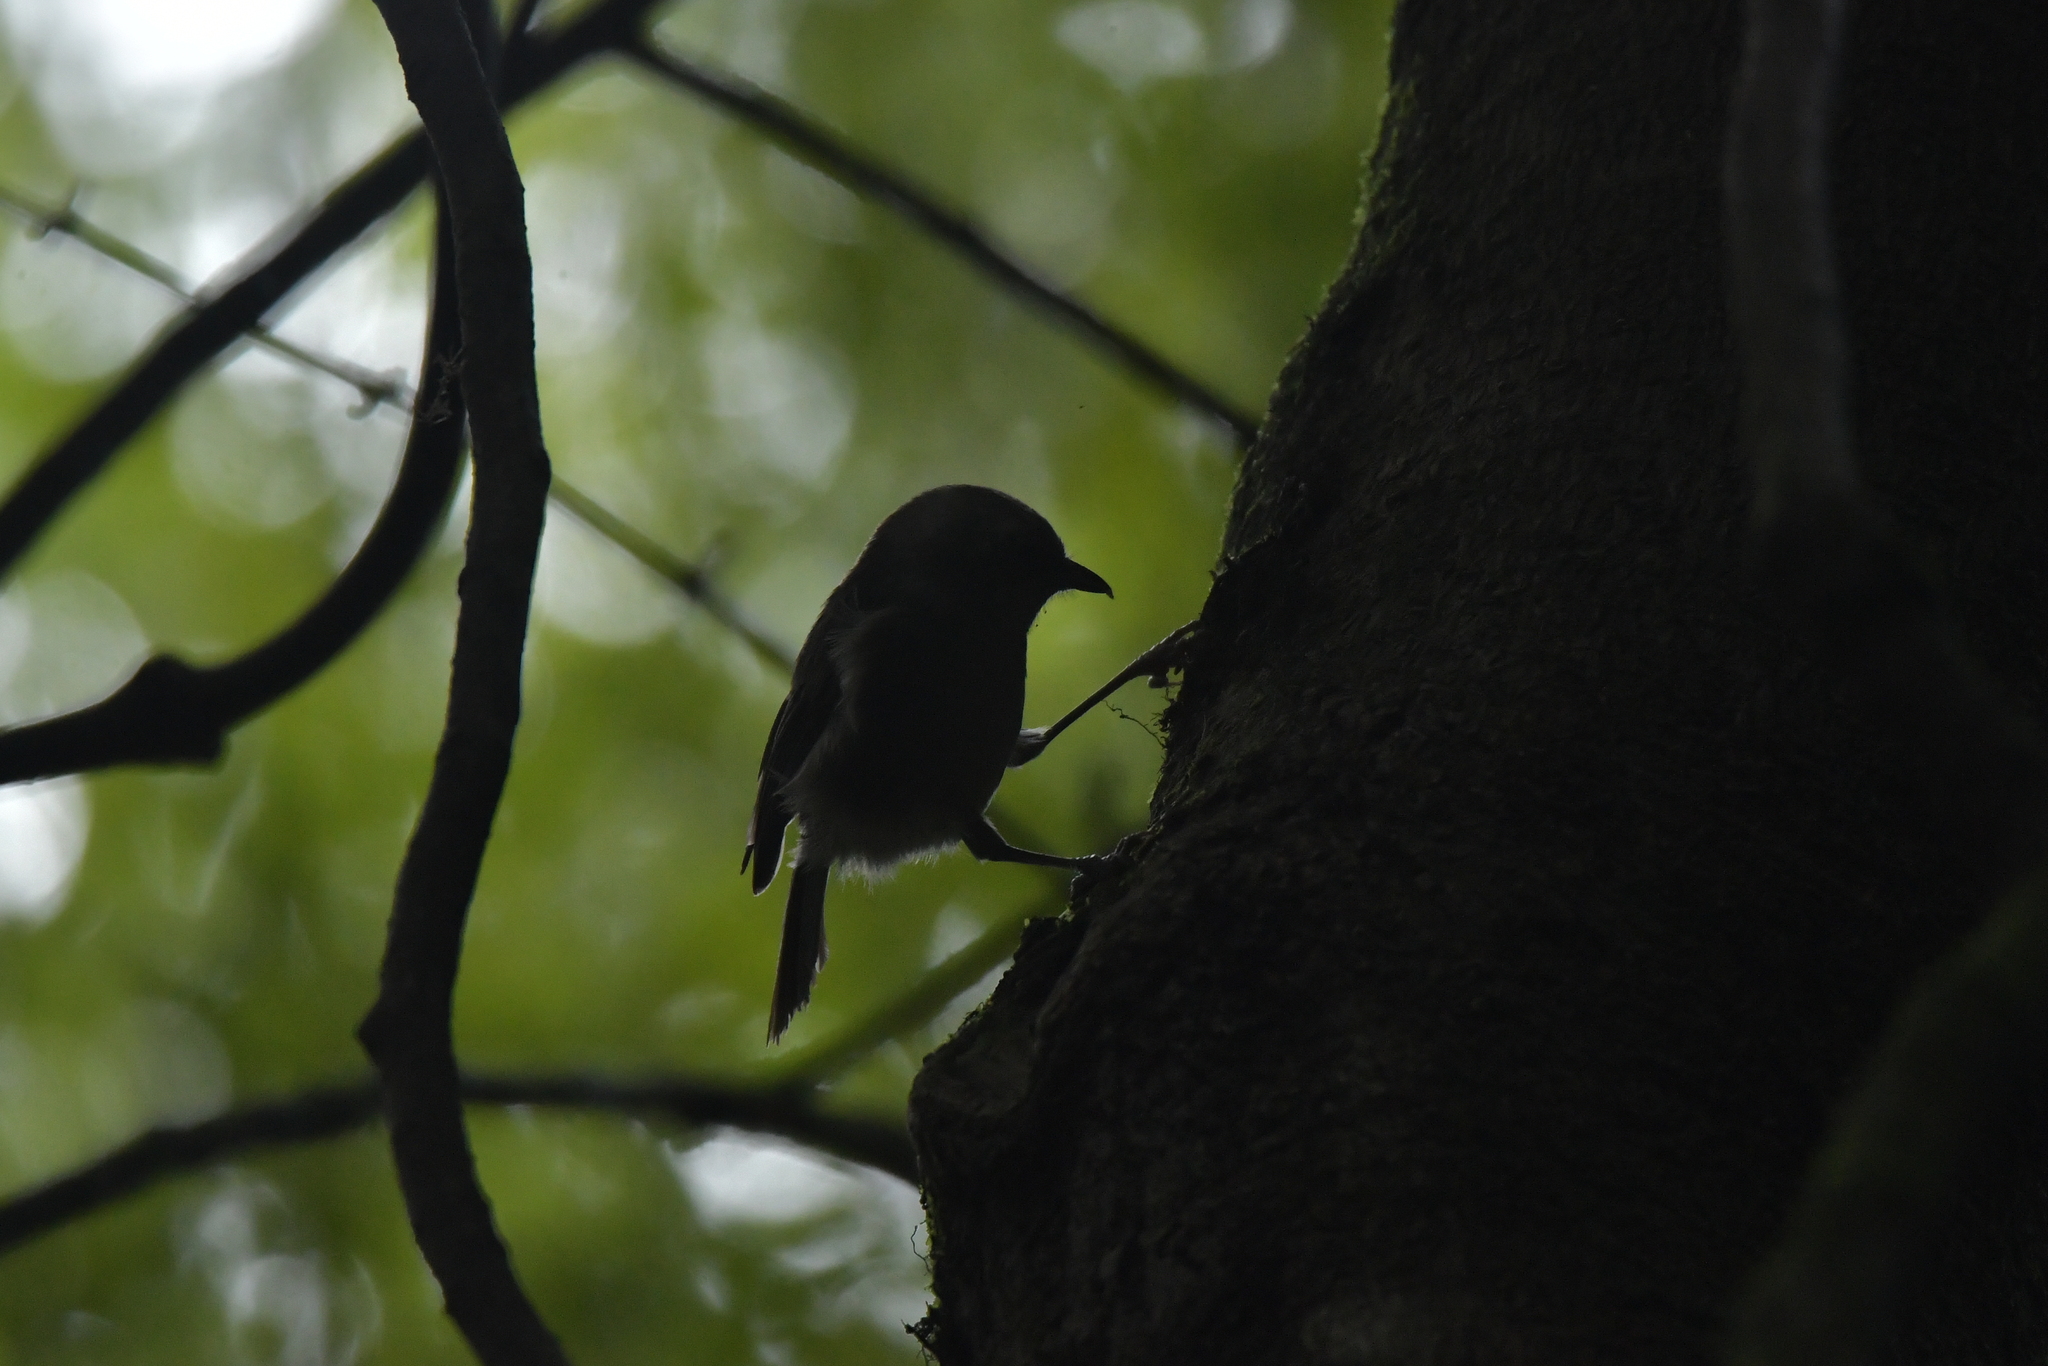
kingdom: Animalia
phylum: Chordata
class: Aves
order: Passeriformes
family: Acanthizidae
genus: Mohoua
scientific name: Mohoua albicilla
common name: Whitehead
